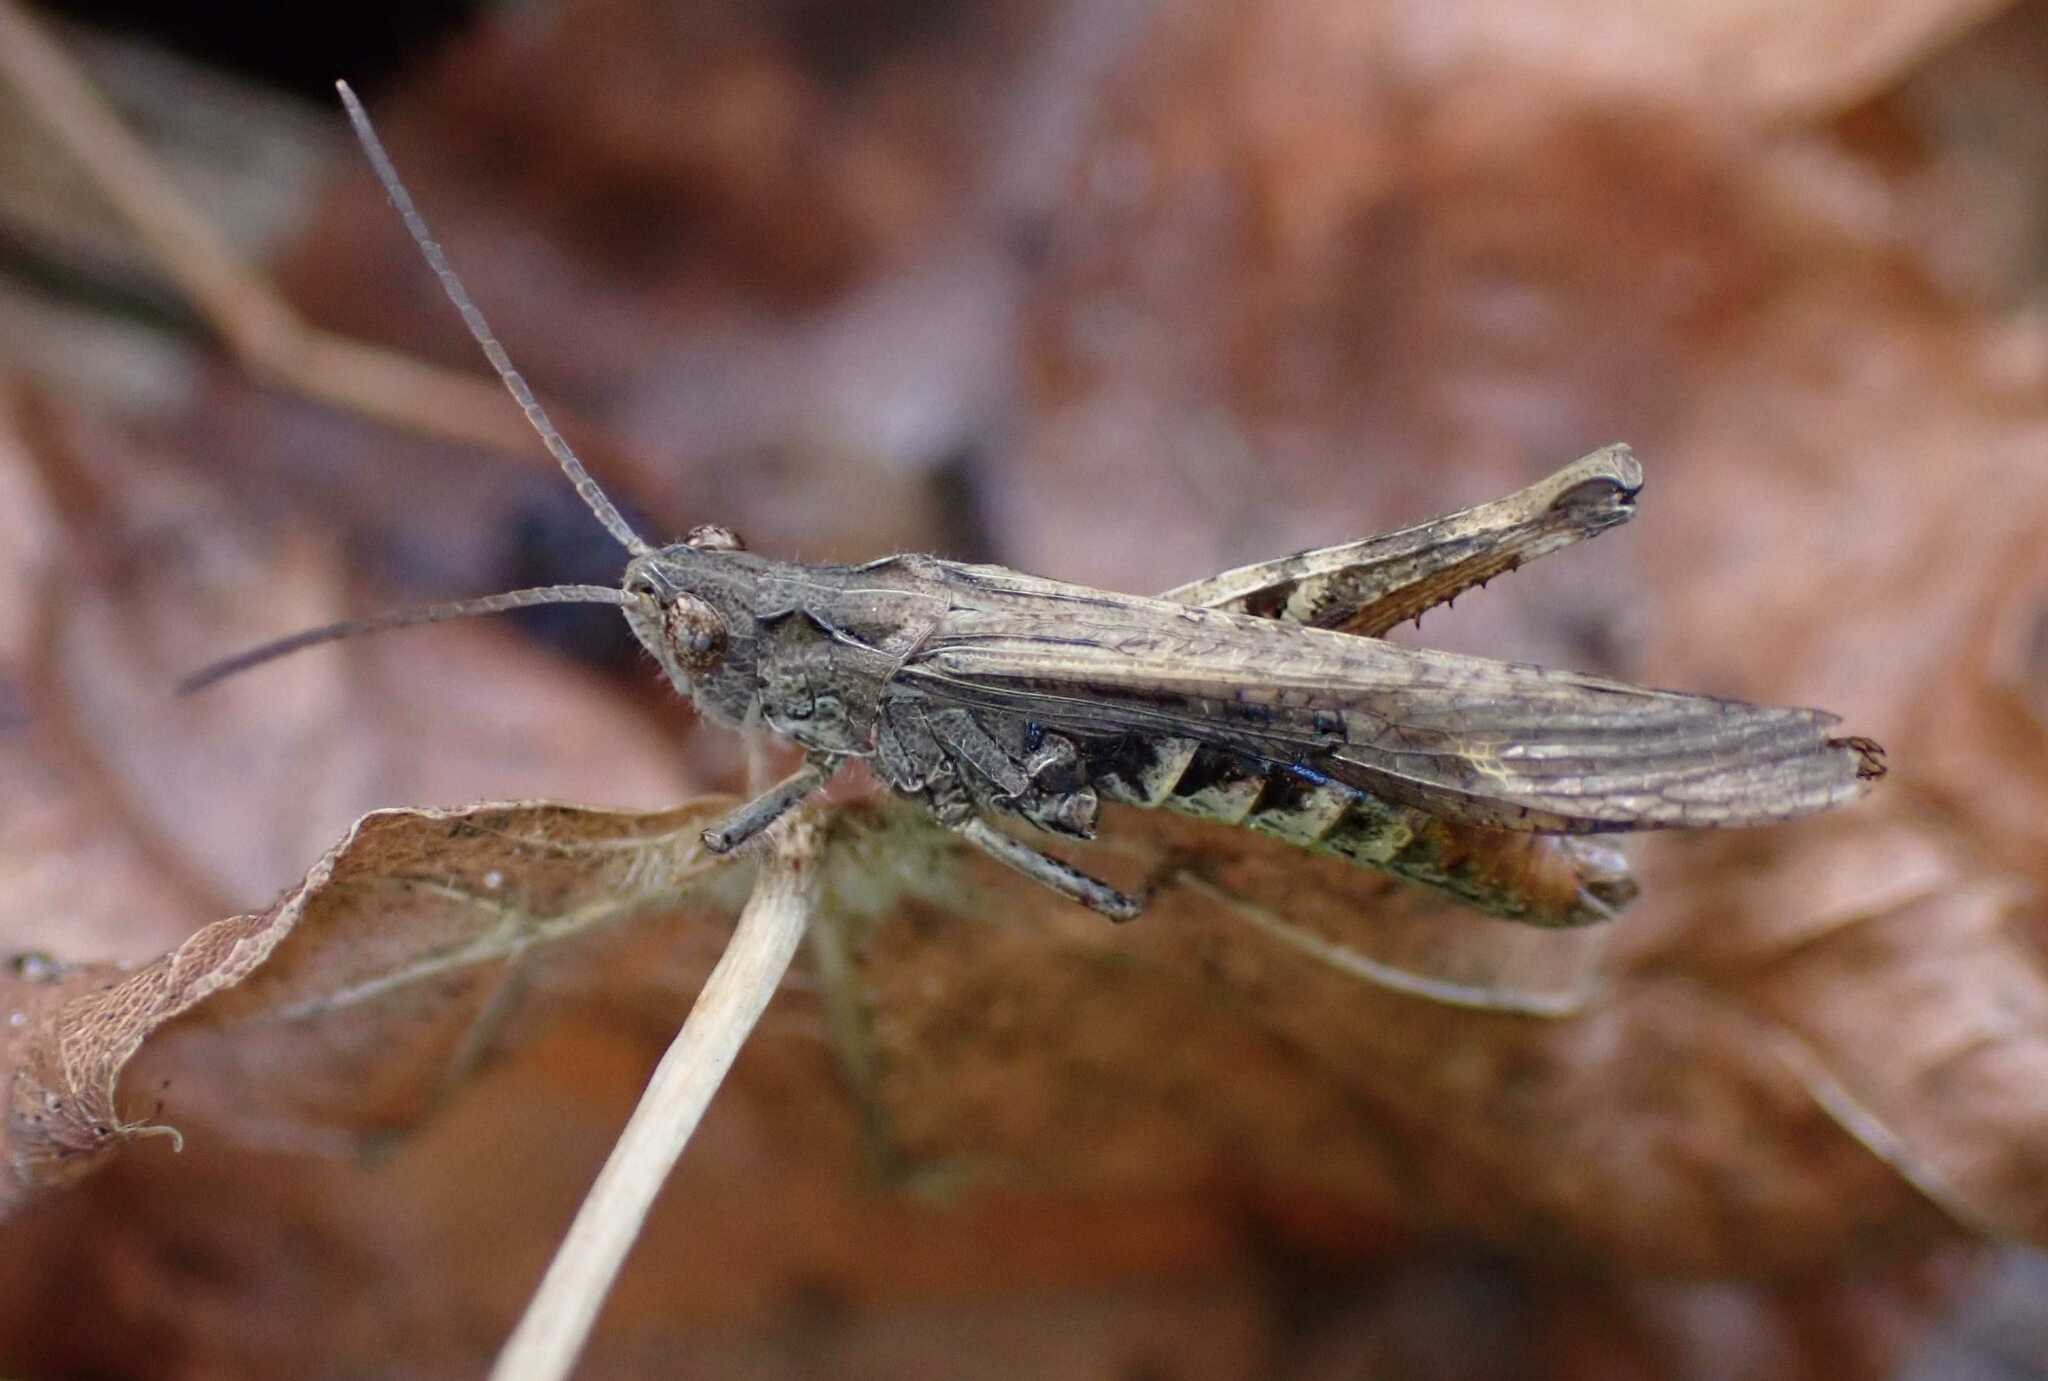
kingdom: Animalia
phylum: Arthropoda
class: Insecta
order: Orthoptera
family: Acrididae
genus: Chorthippus
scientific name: Chorthippus brunneus
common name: Field grasshopper
